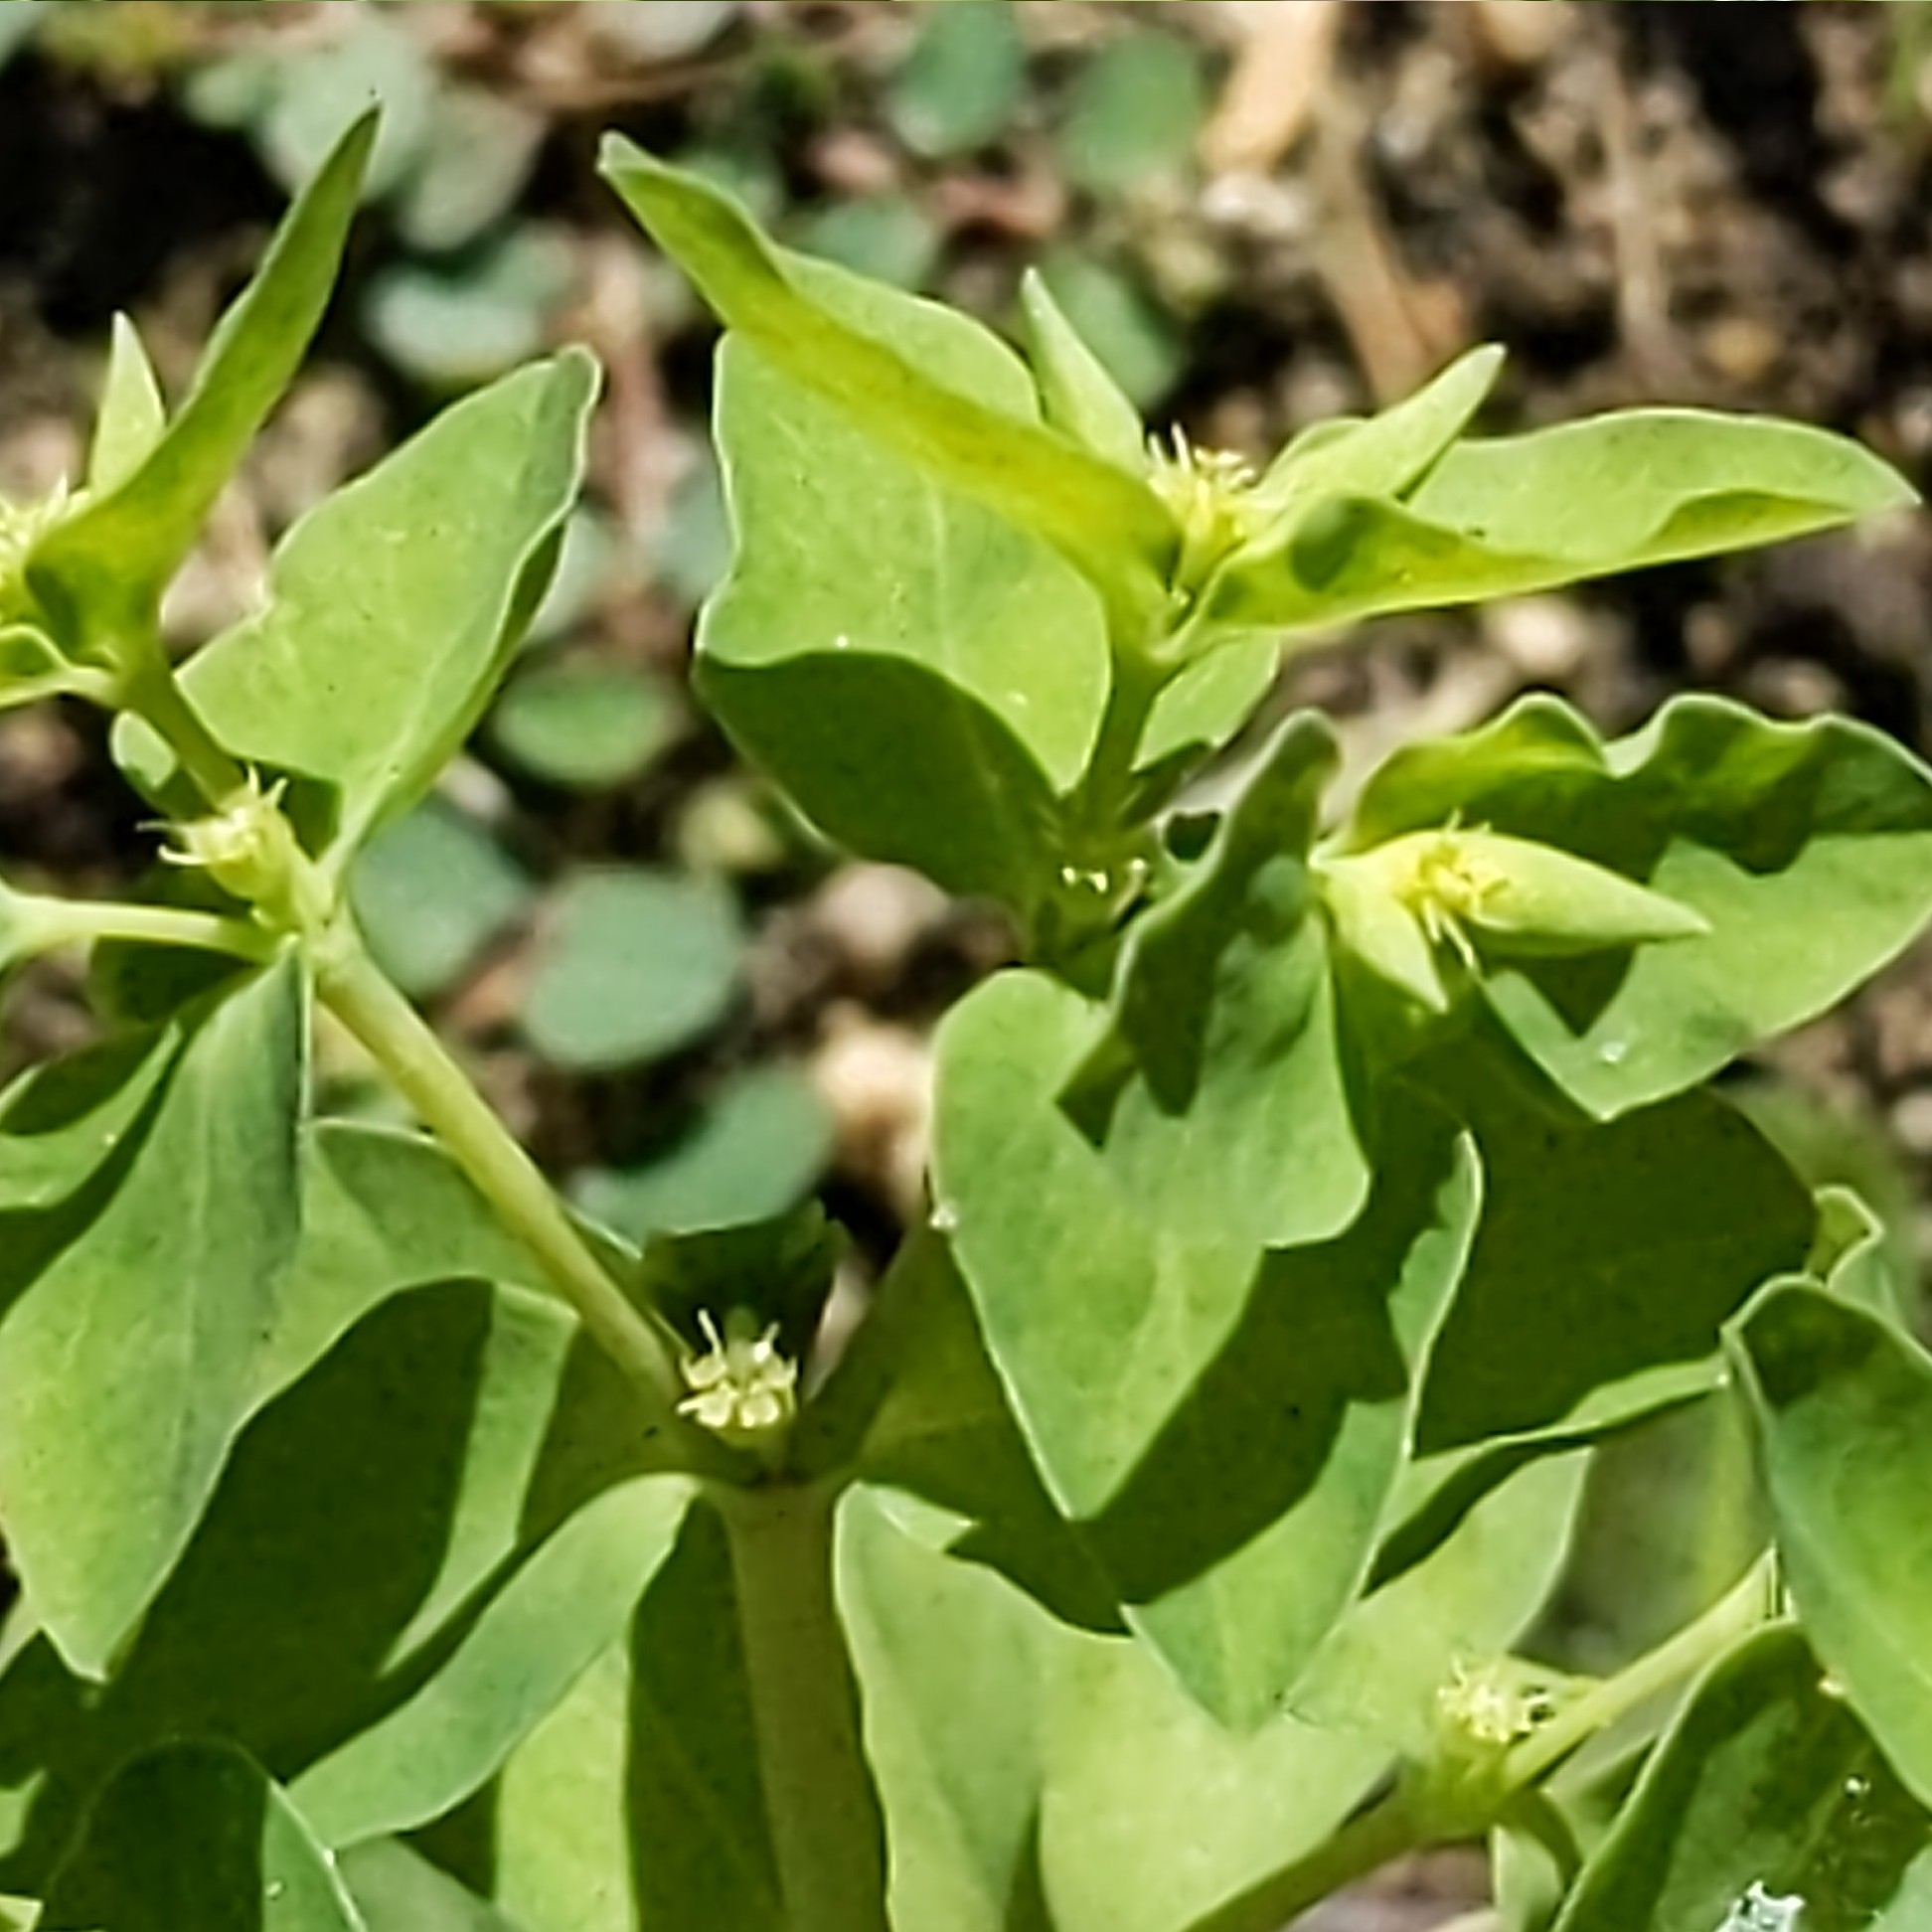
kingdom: Plantae
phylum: Tracheophyta
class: Magnoliopsida
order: Malpighiales
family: Euphorbiaceae
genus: Euphorbia
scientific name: Euphorbia peplus
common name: Petty spurge
